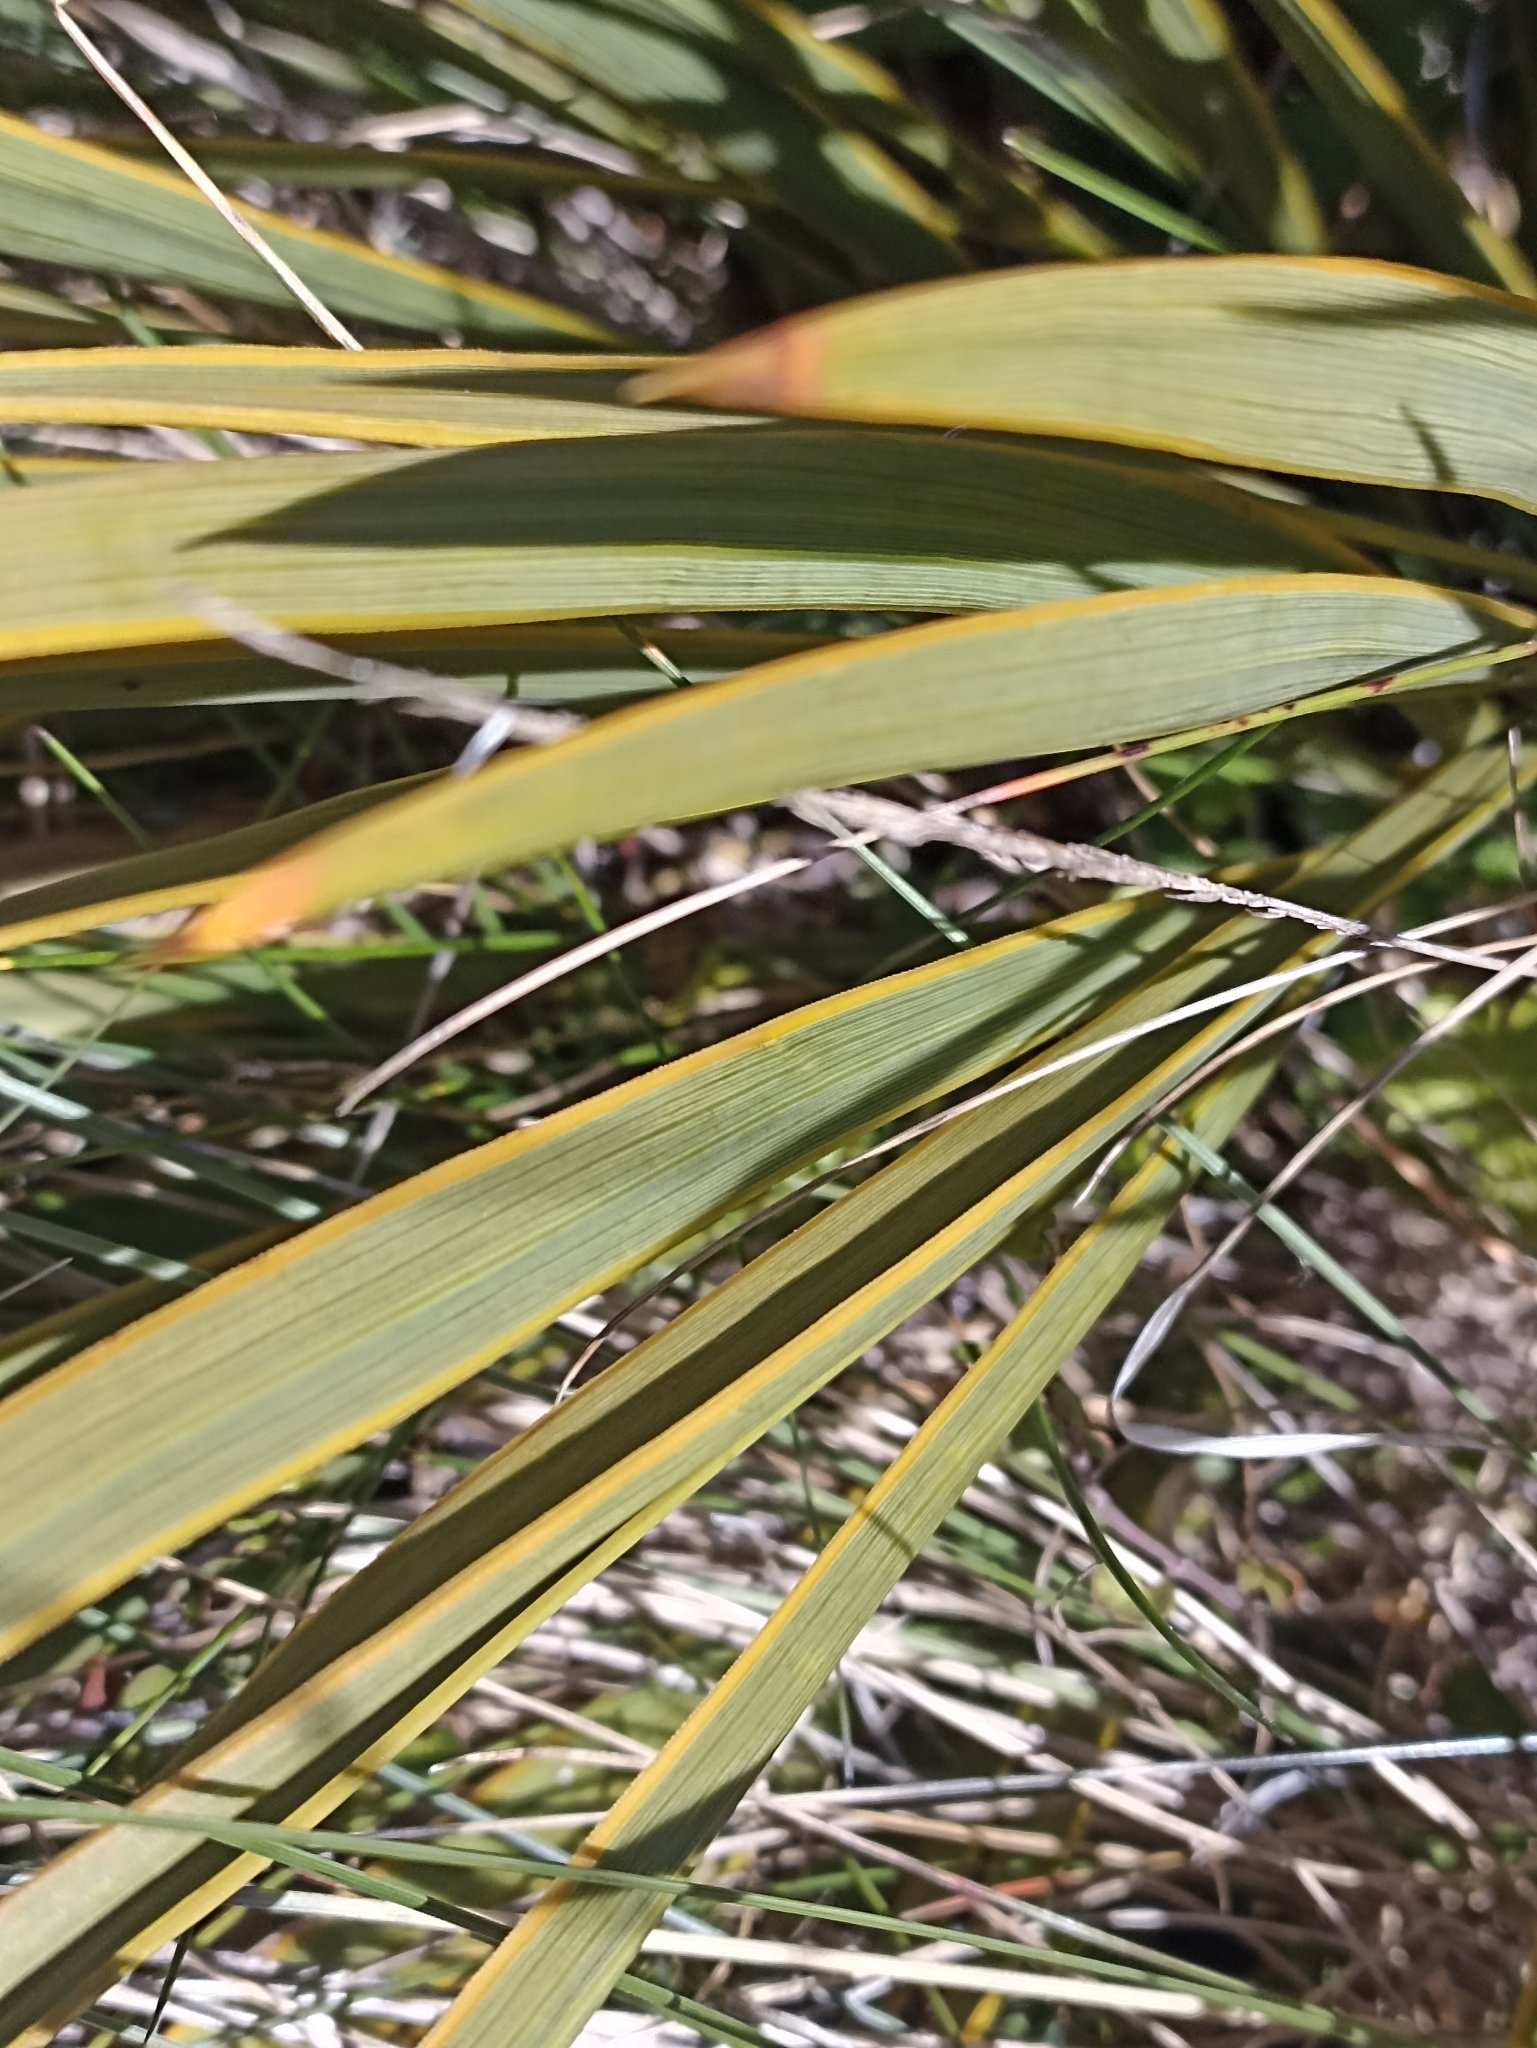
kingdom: Plantae
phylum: Tracheophyta
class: Magnoliopsida
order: Apiales
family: Apiaceae
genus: Aciphylla
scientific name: Aciphylla aurea
